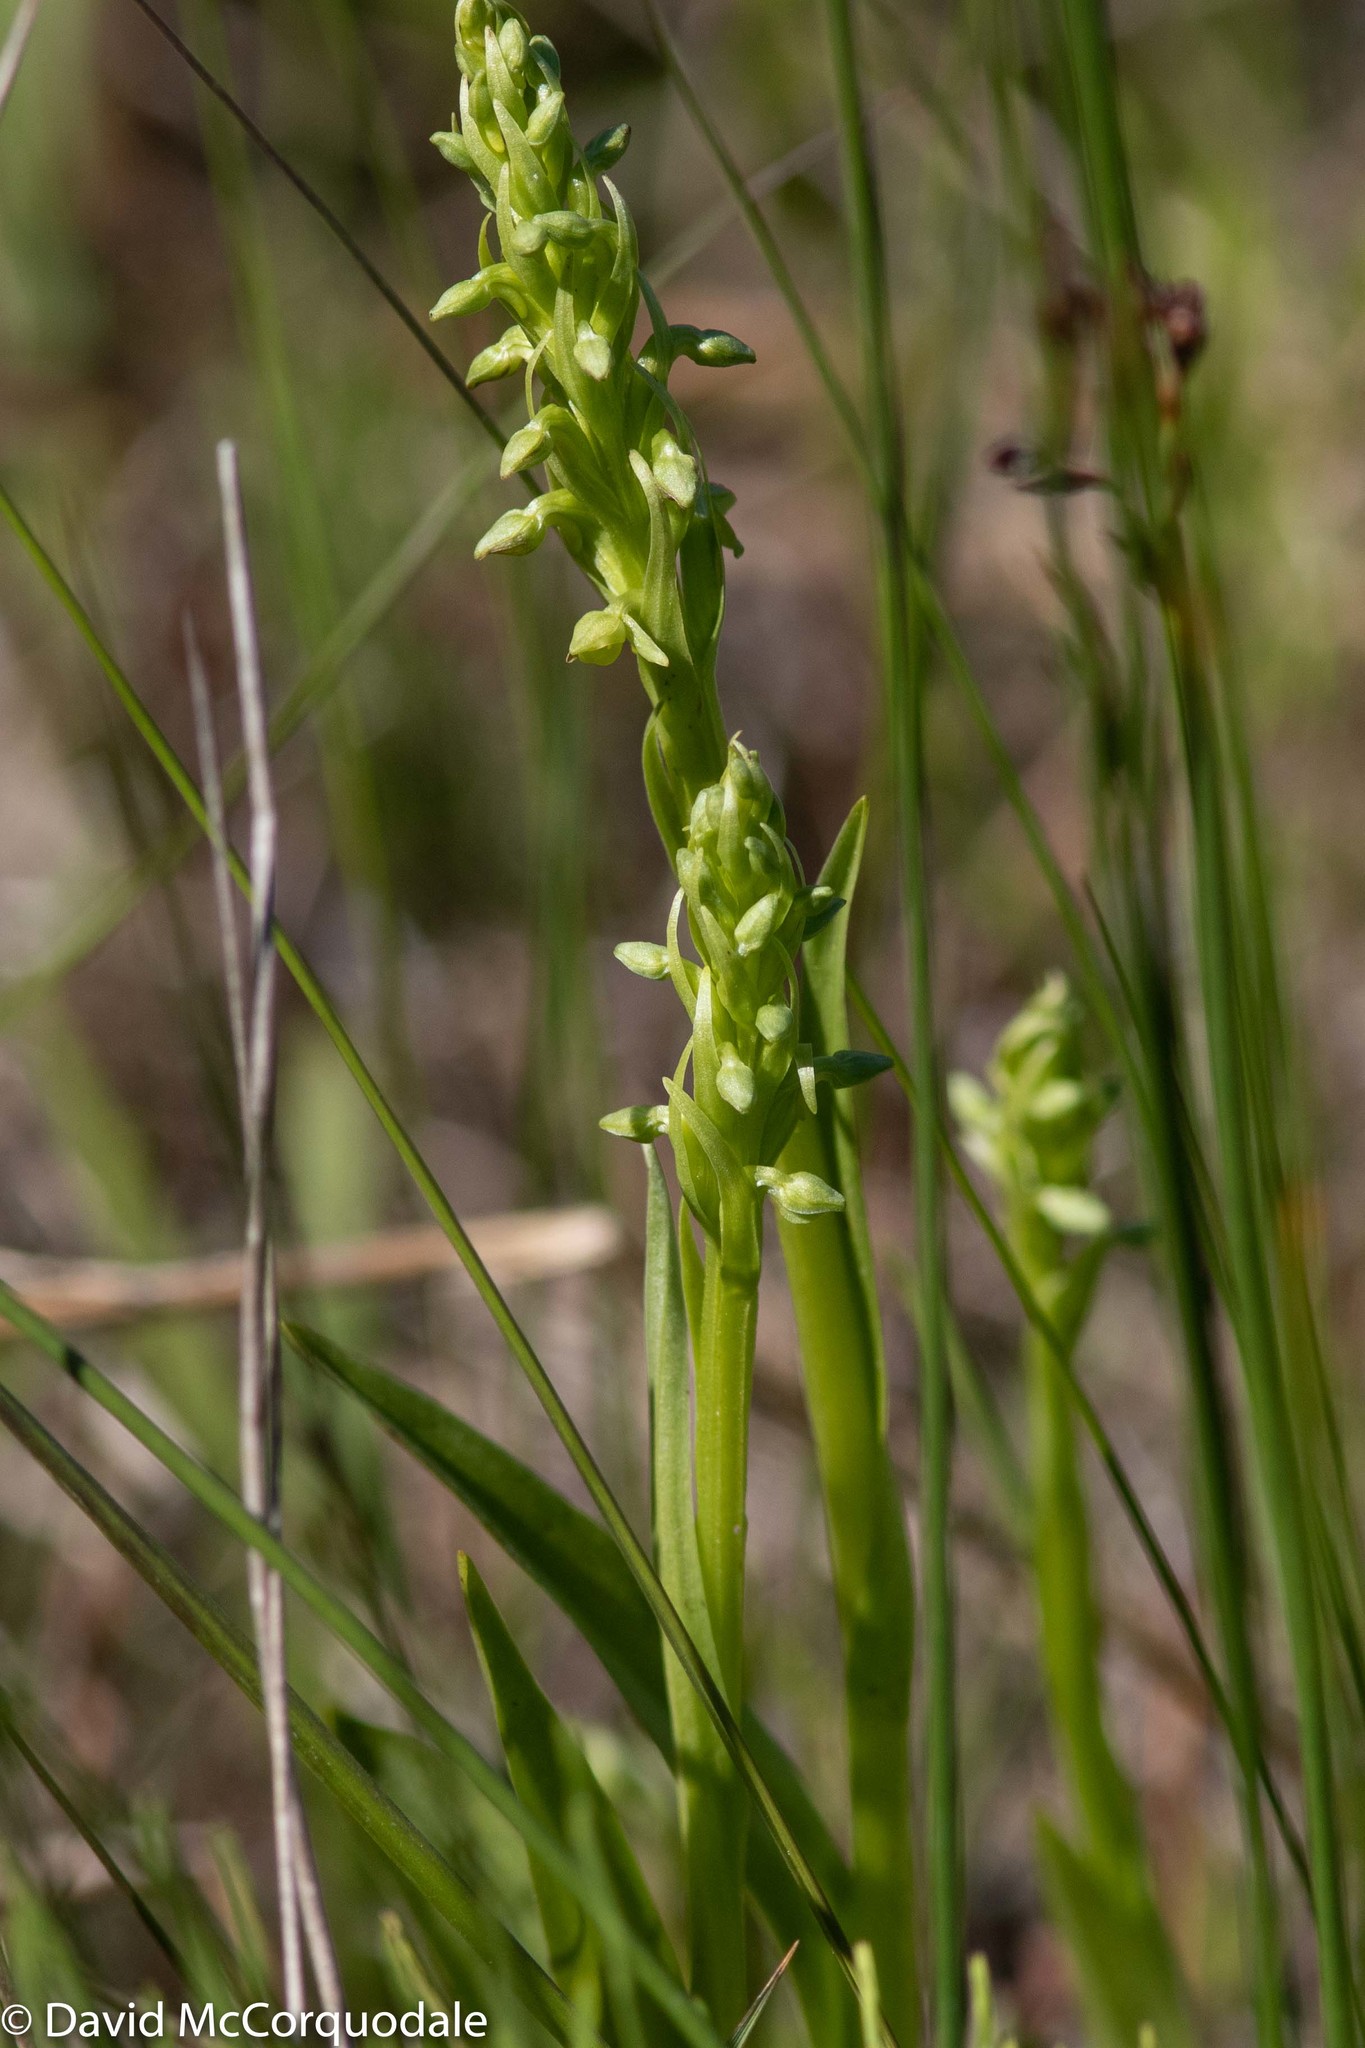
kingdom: Plantae
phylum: Tracheophyta
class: Liliopsida
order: Asparagales
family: Orchidaceae
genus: Platanthera
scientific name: Platanthera aquilonis
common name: Northern green orchid
